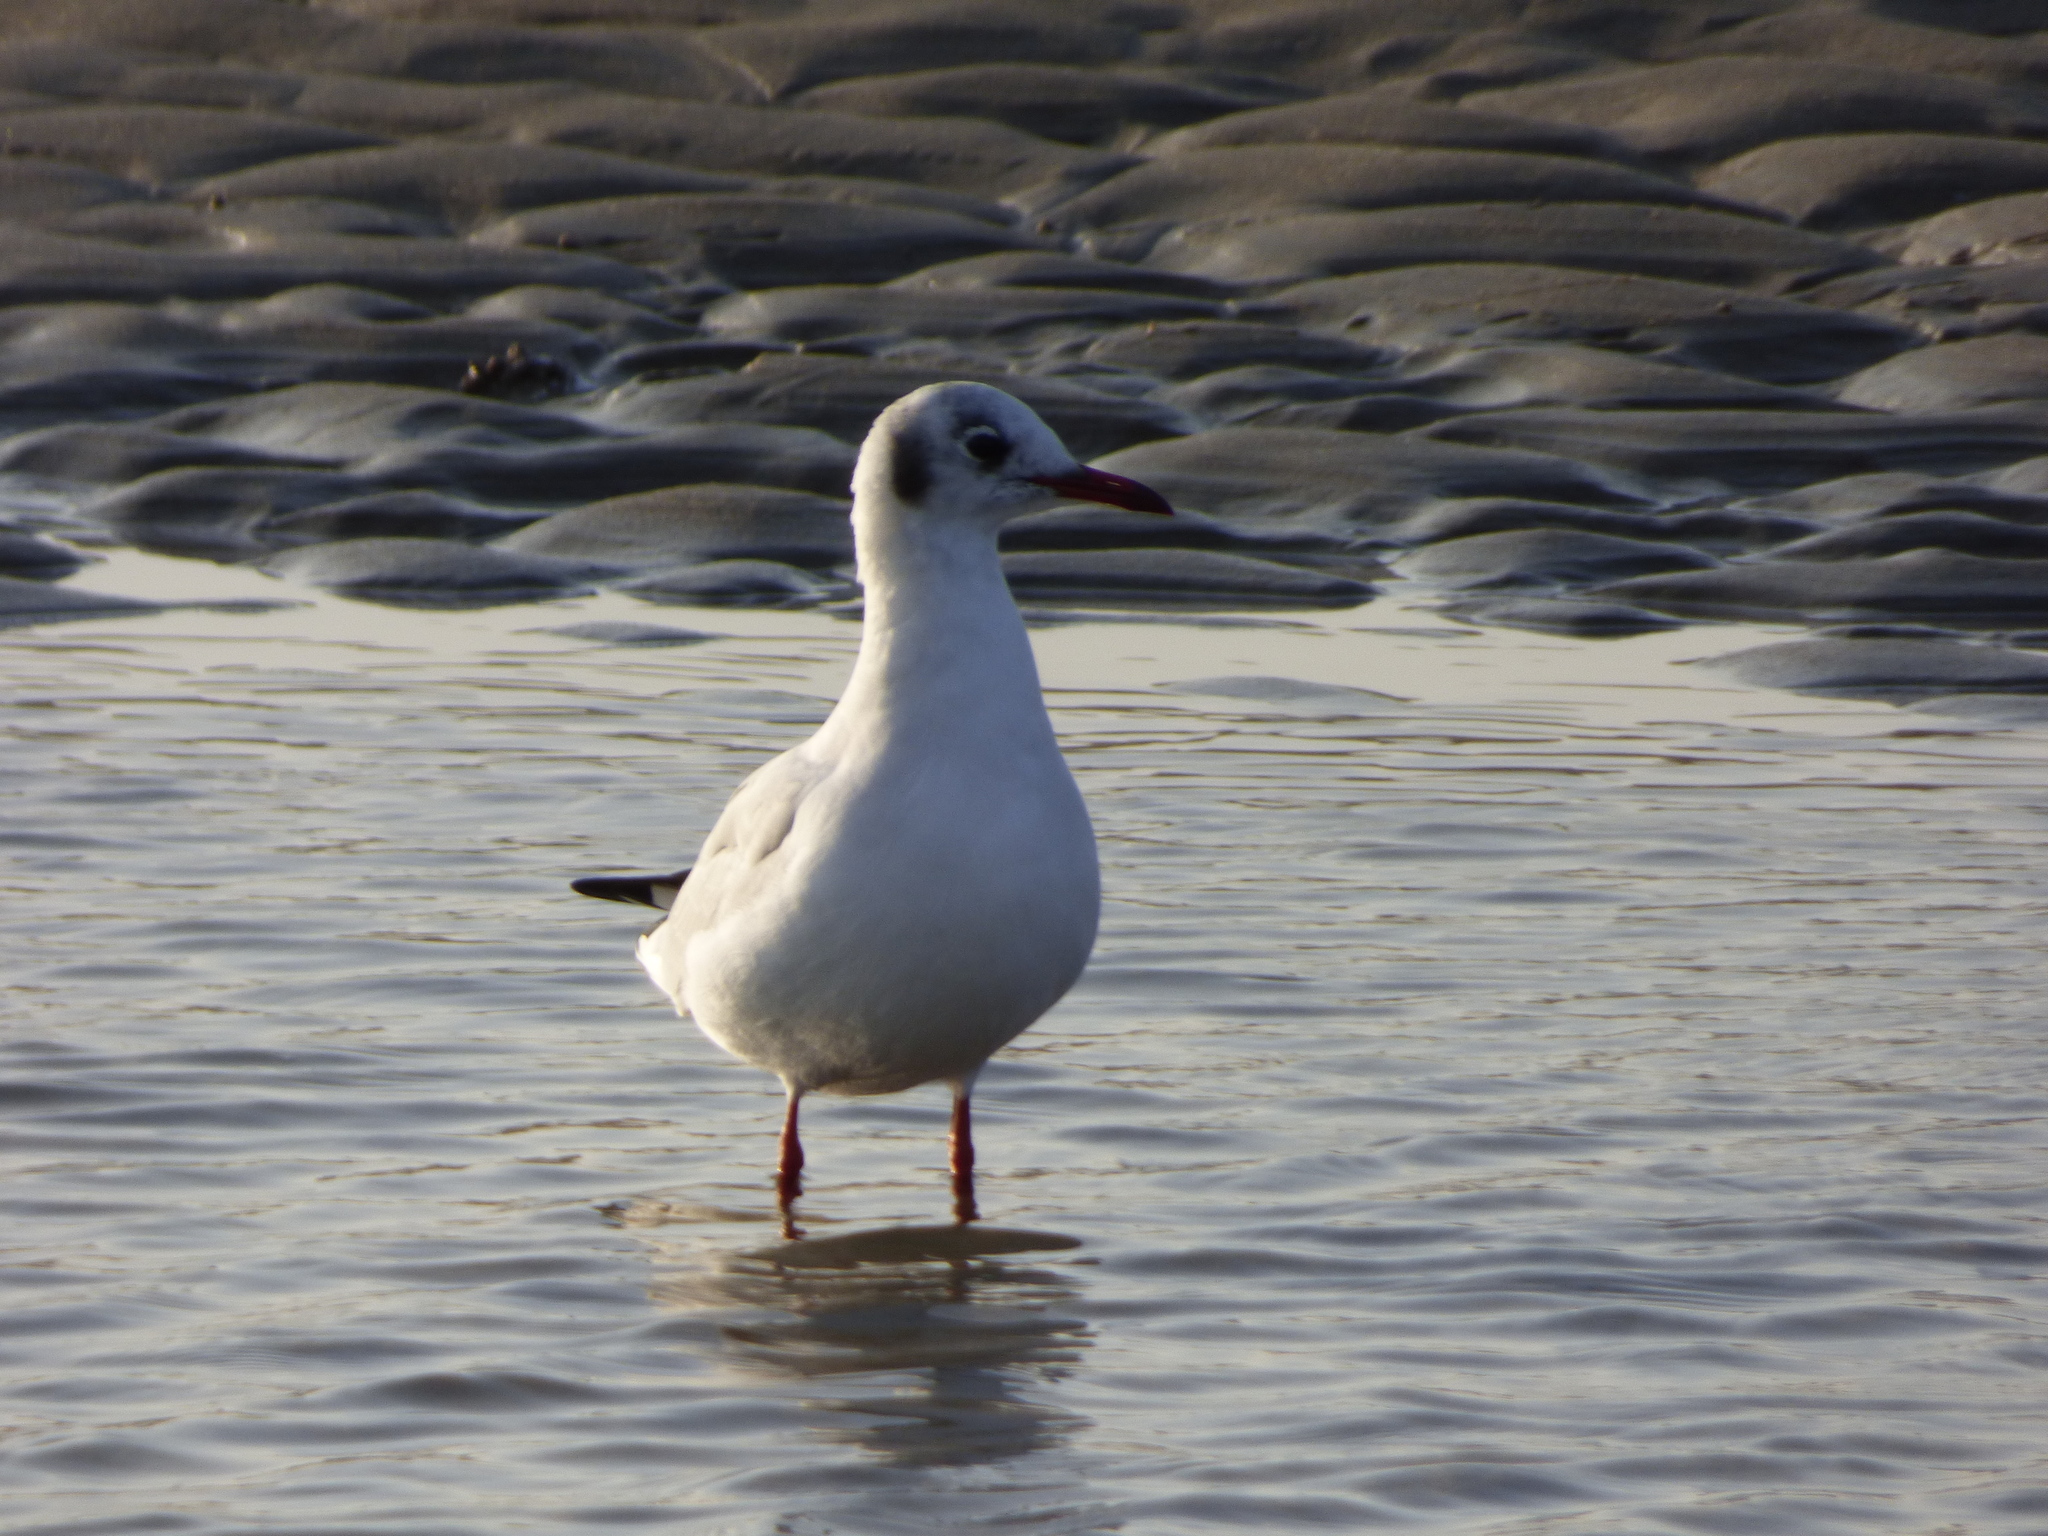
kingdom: Animalia
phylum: Chordata
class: Aves
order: Charadriiformes
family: Laridae
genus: Chroicocephalus
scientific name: Chroicocephalus ridibundus
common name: Black-headed gull
